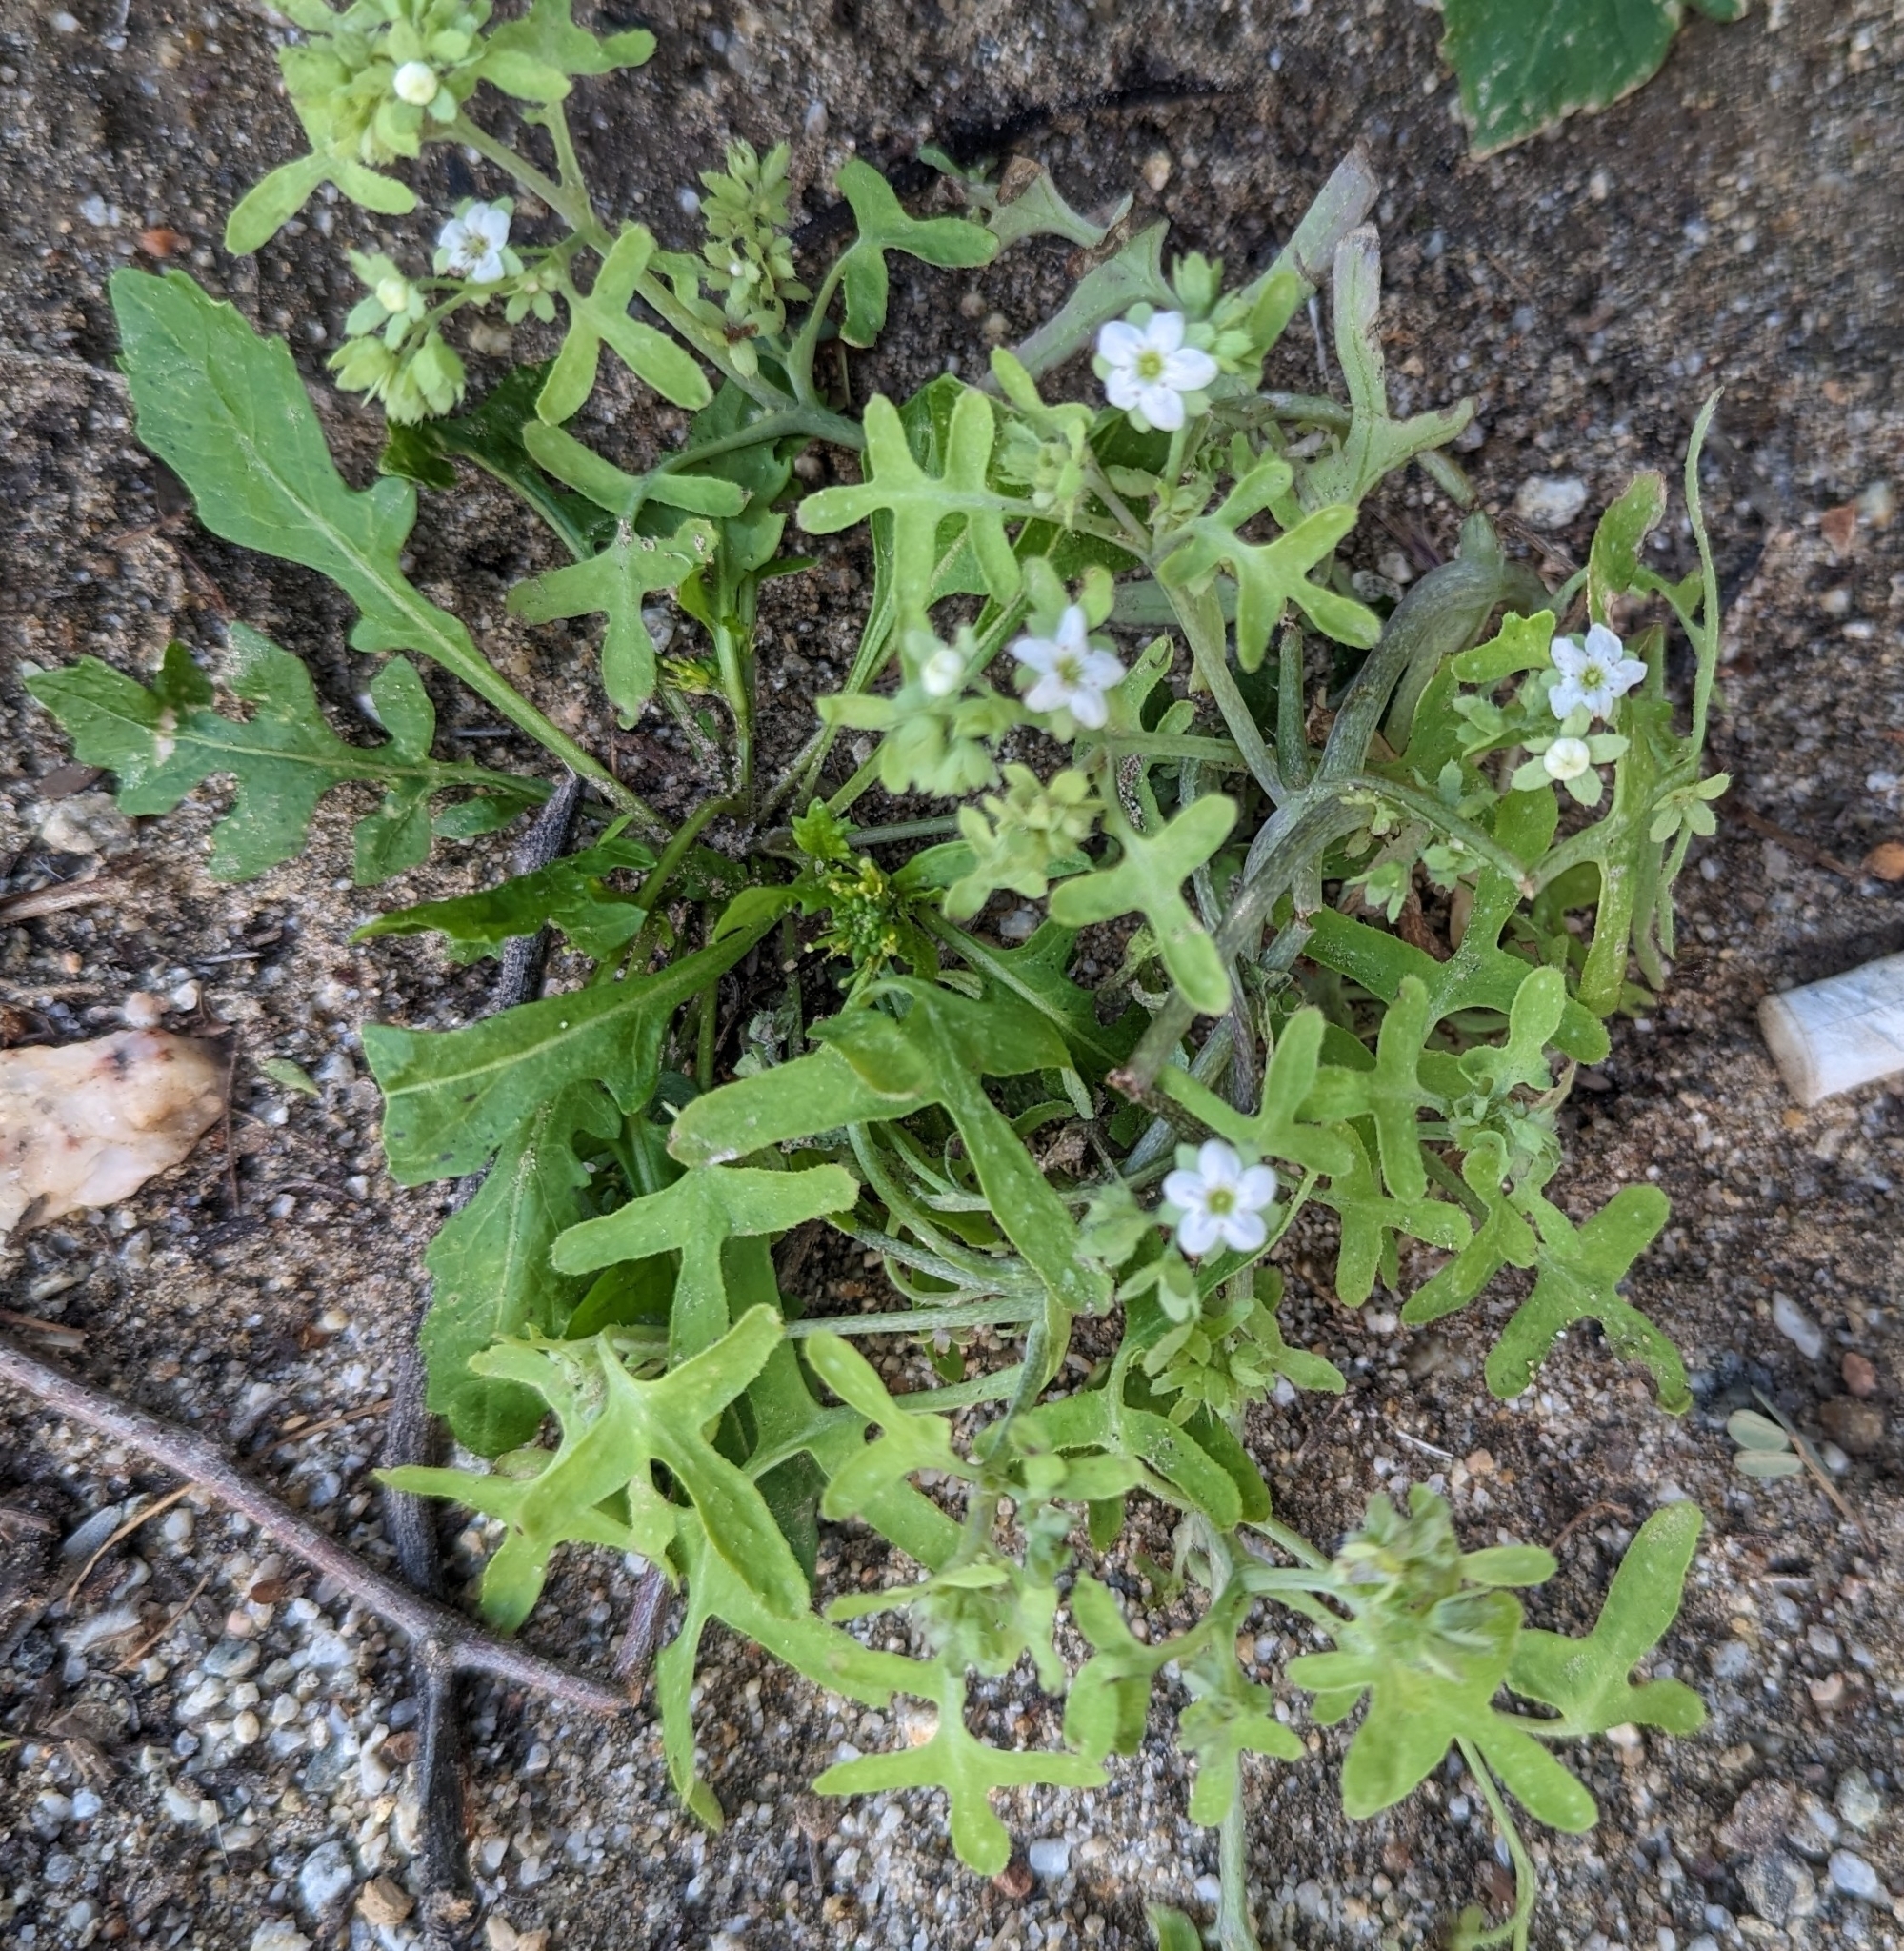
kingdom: Plantae
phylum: Tracheophyta
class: Magnoliopsida
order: Boraginales
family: Hydrophyllaceae
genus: Pholistoma
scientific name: Pholistoma membranaceum
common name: White fiesta-flower
